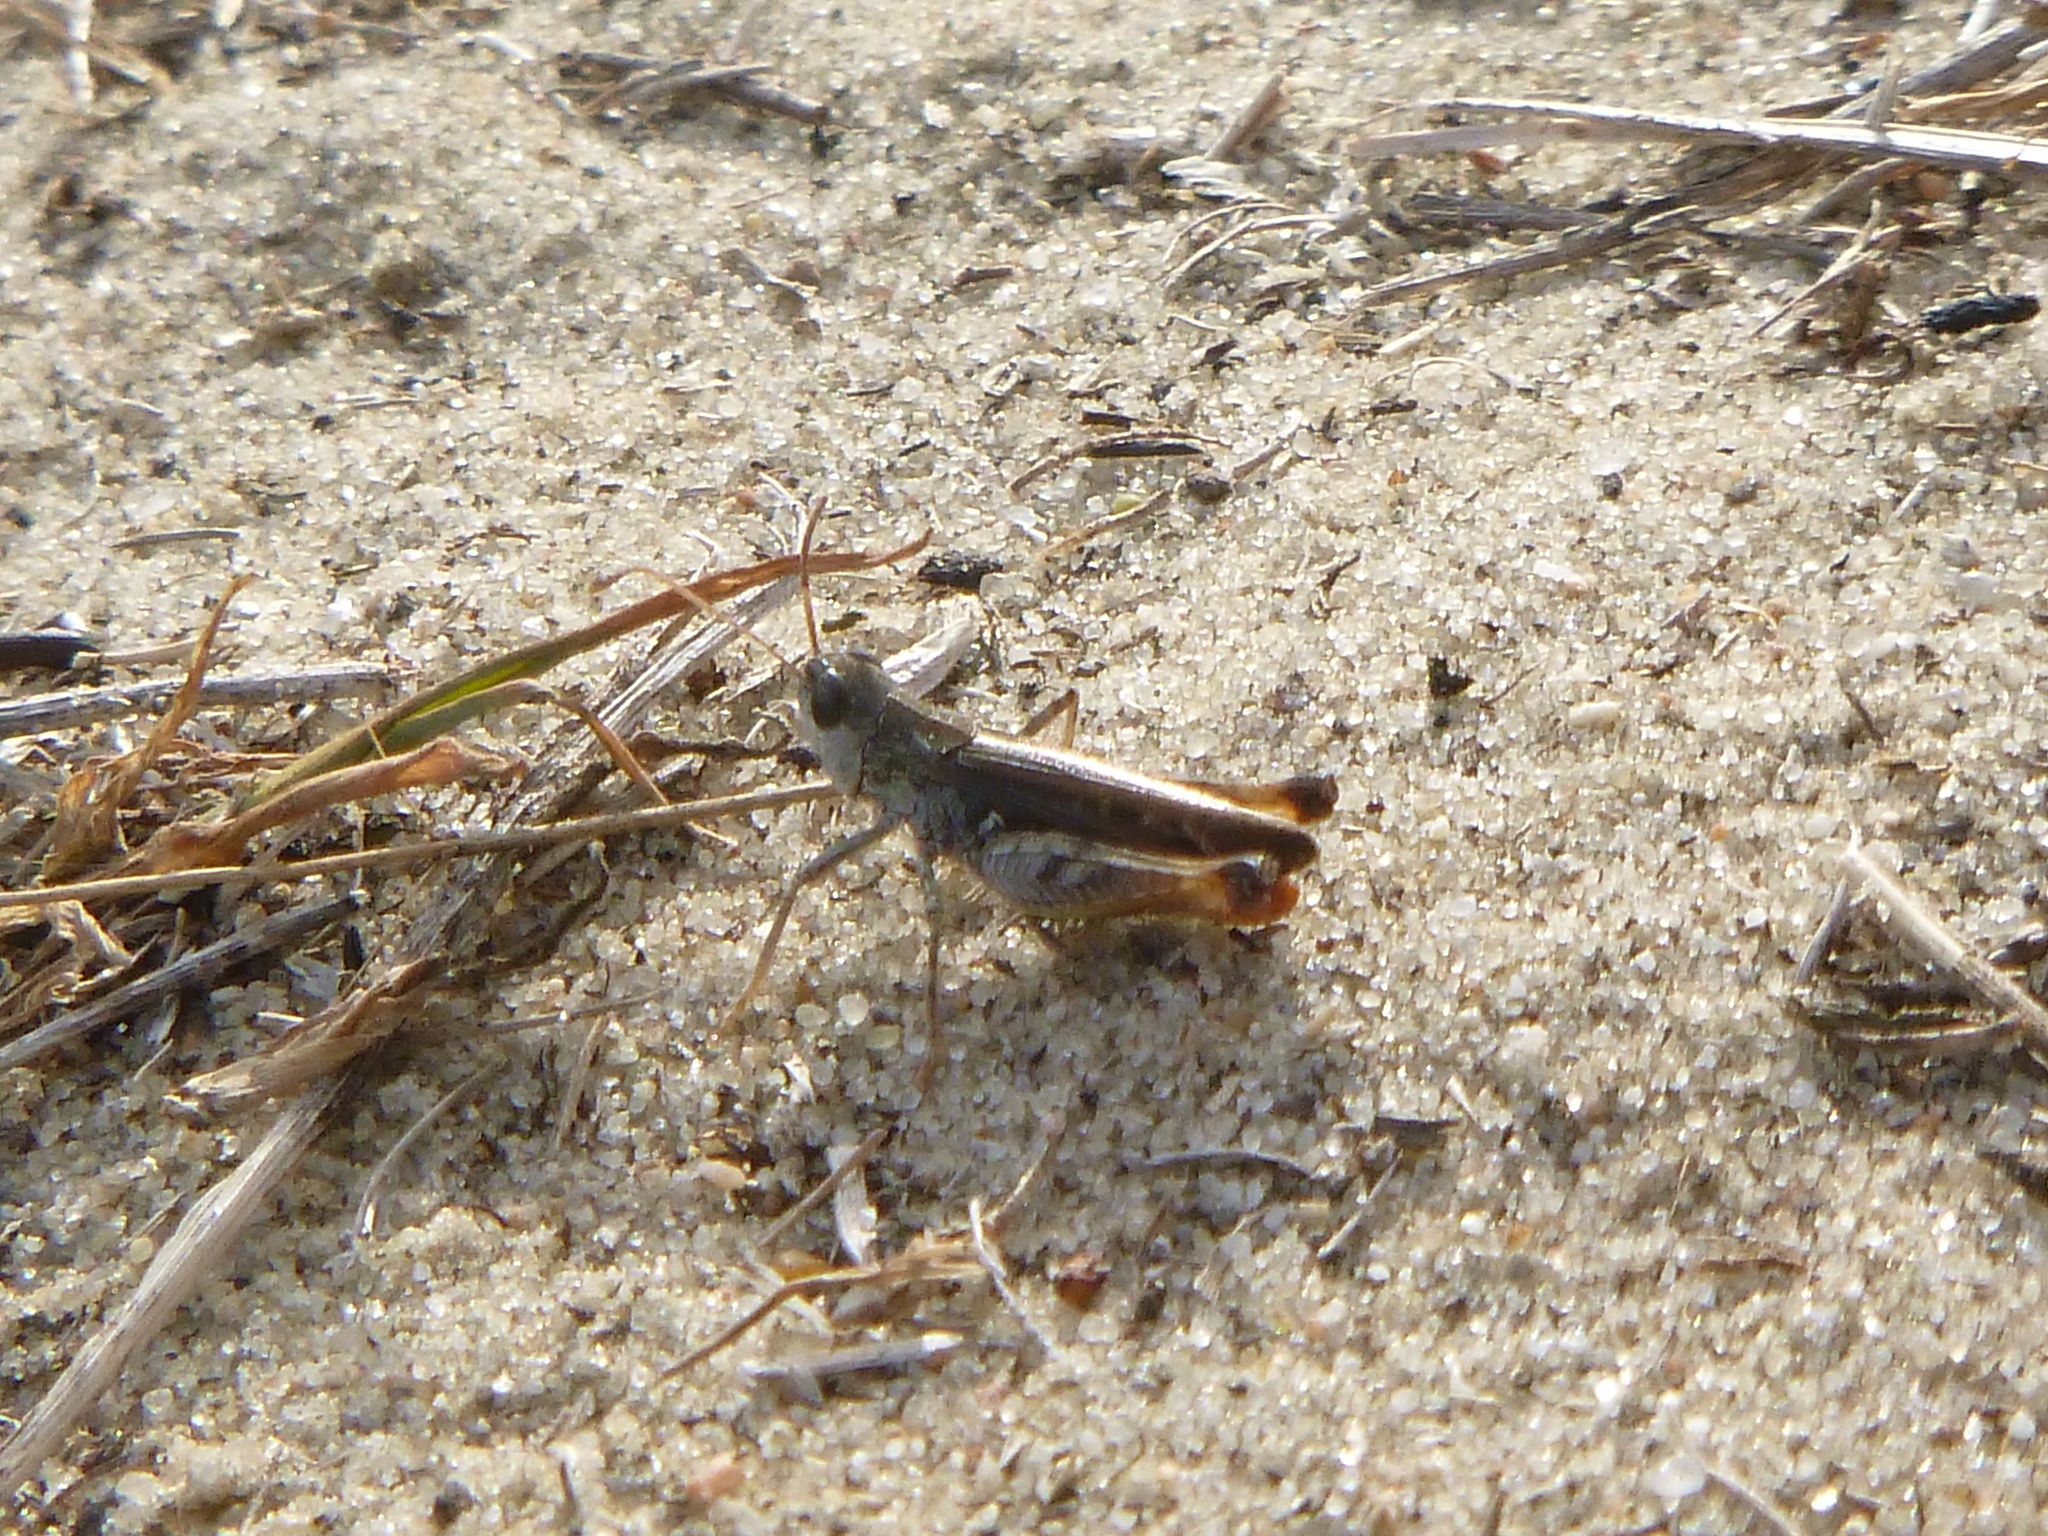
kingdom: Animalia
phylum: Arthropoda
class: Insecta
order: Orthoptera
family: Acrididae
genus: Myrmeleotettix
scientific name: Myrmeleotettix maculatus
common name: Mottled grasshopper
